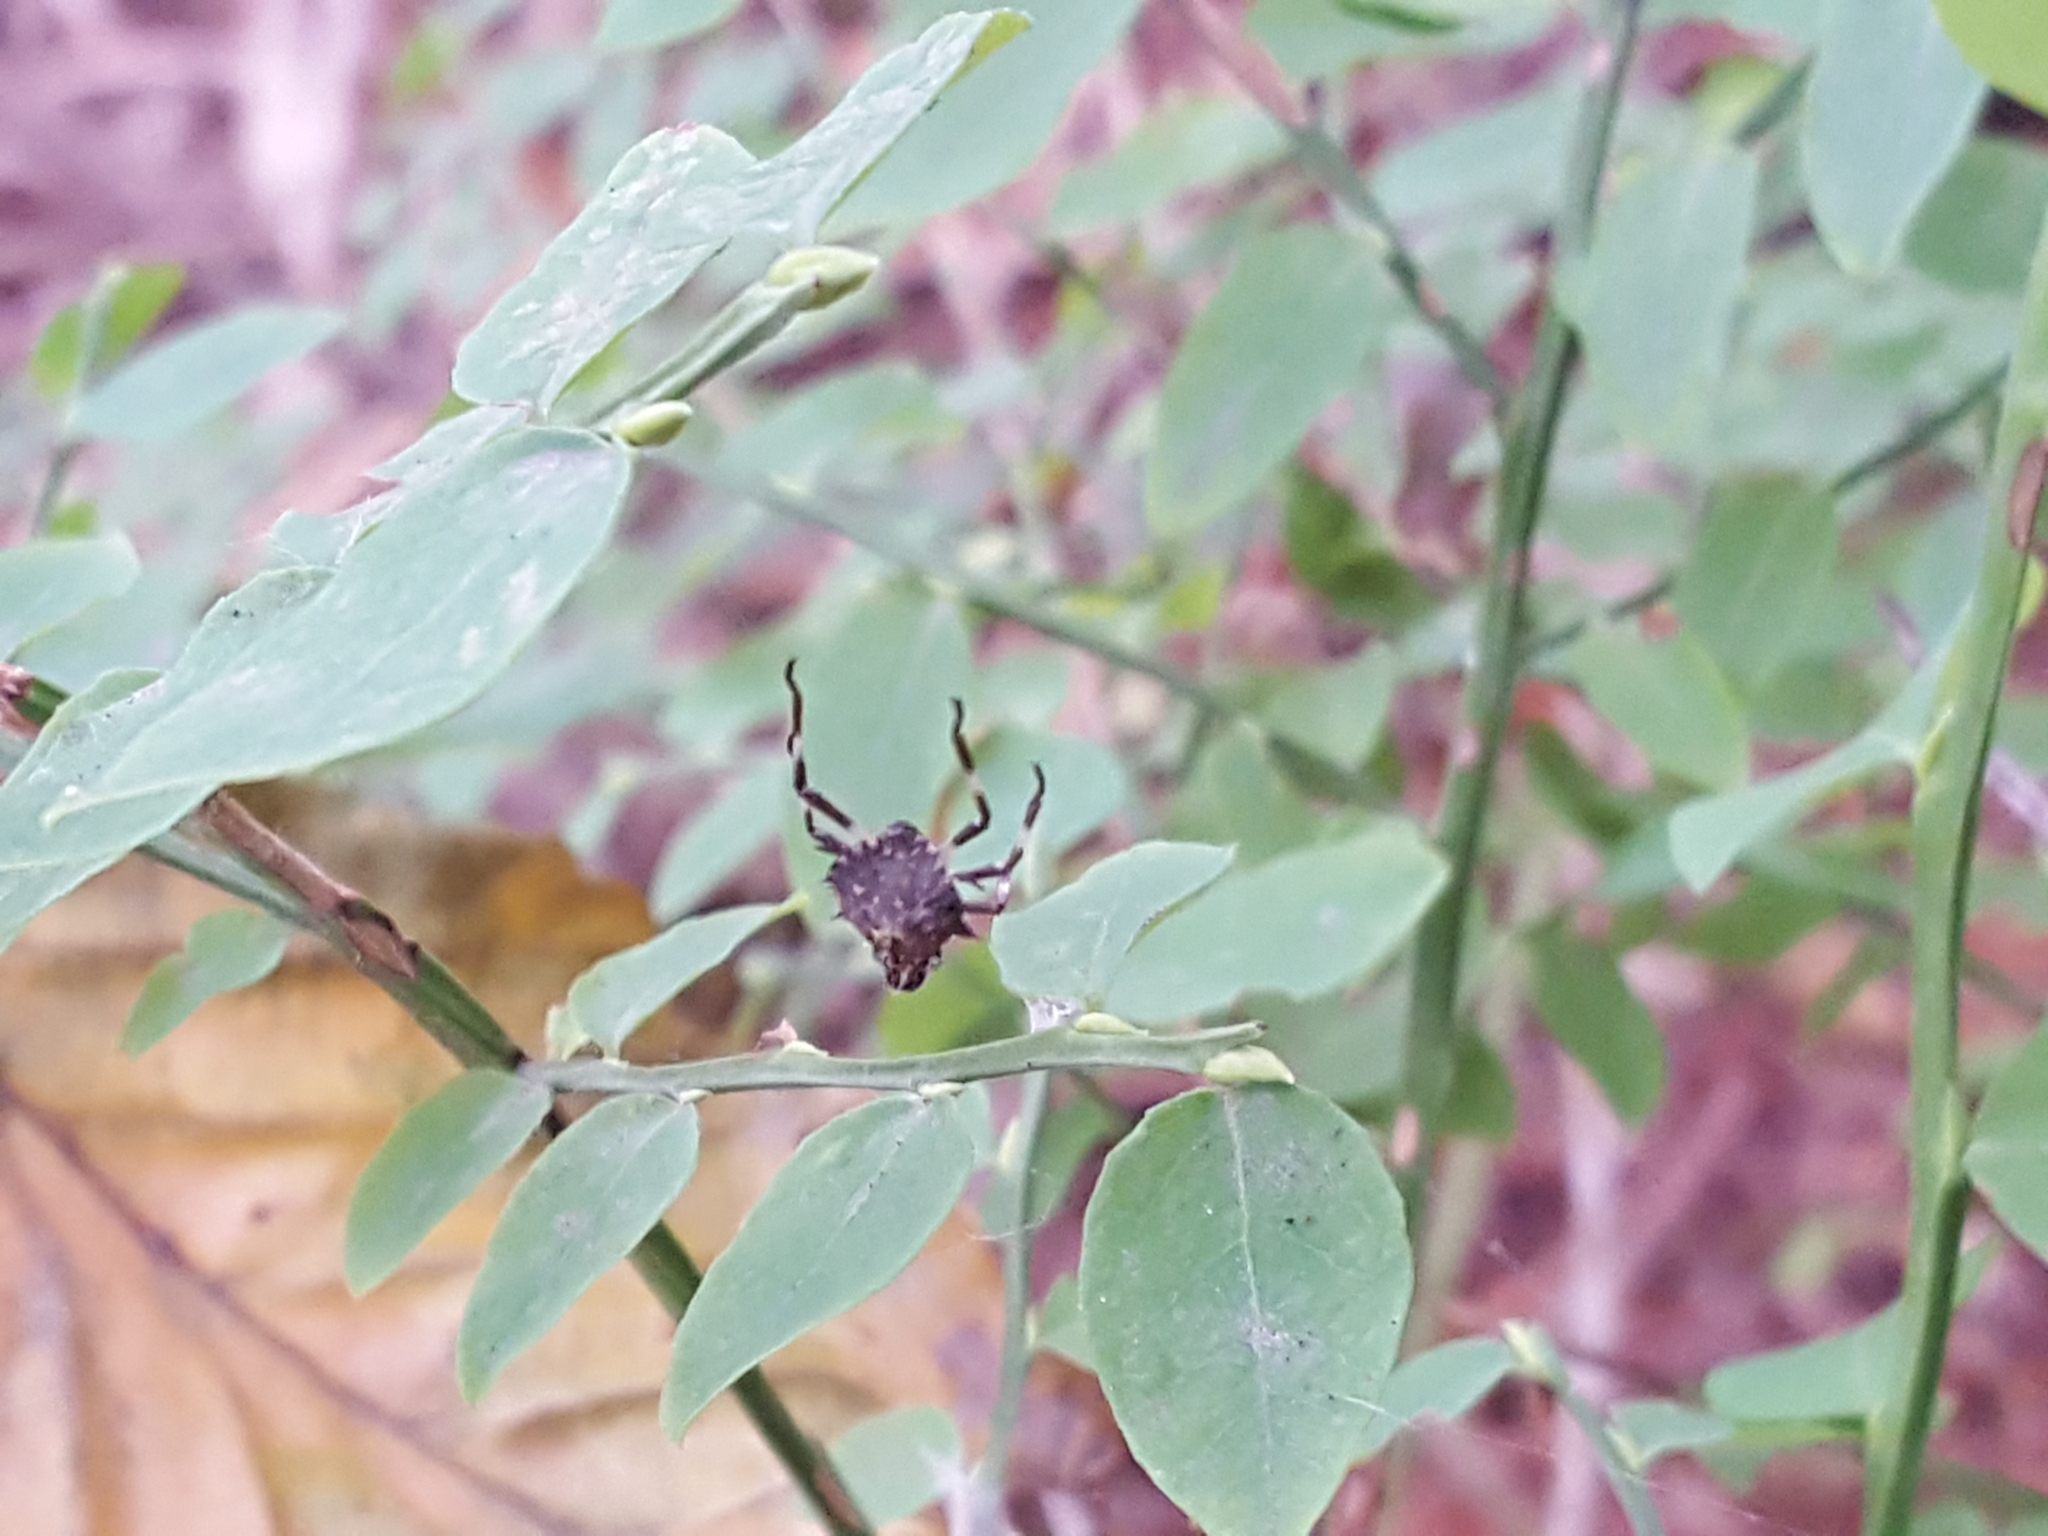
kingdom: Animalia
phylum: Arthropoda
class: Insecta
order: Hemiptera
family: Pentatomidae
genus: Halyomorpha
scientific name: Halyomorpha halys
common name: Brown marmorated stink bug
